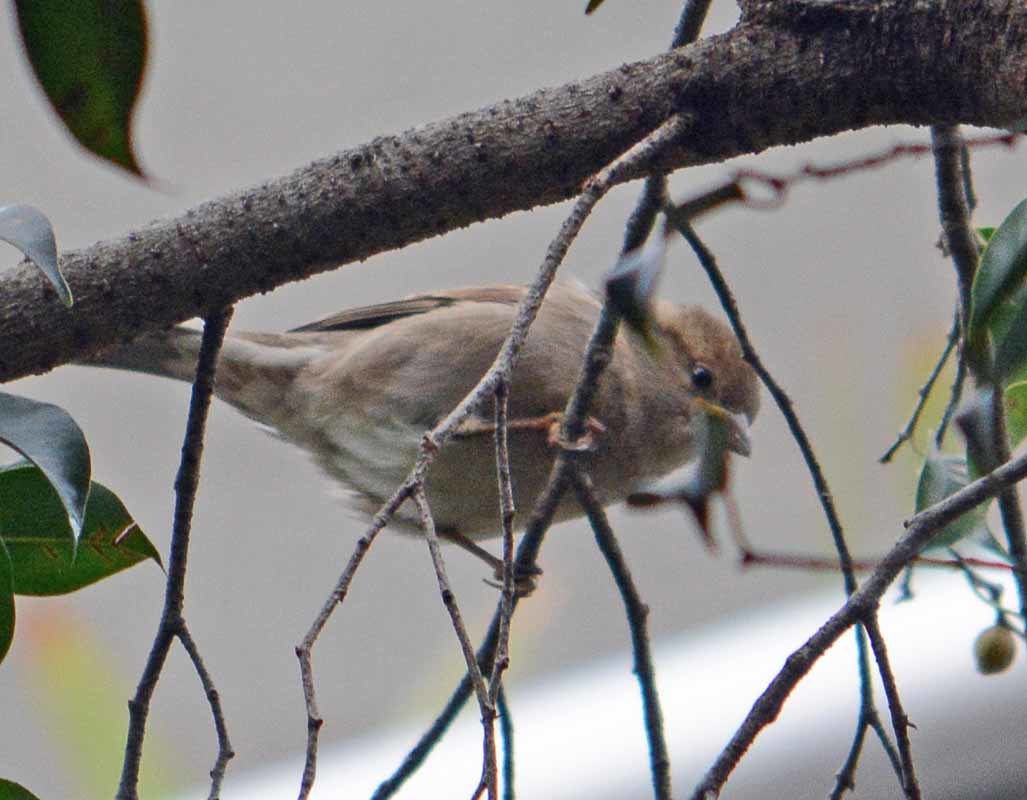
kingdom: Animalia
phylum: Chordata
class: Aves
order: Passeriformes
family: Passeridae
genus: Passer
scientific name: Passer domesticus
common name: House sparrow
